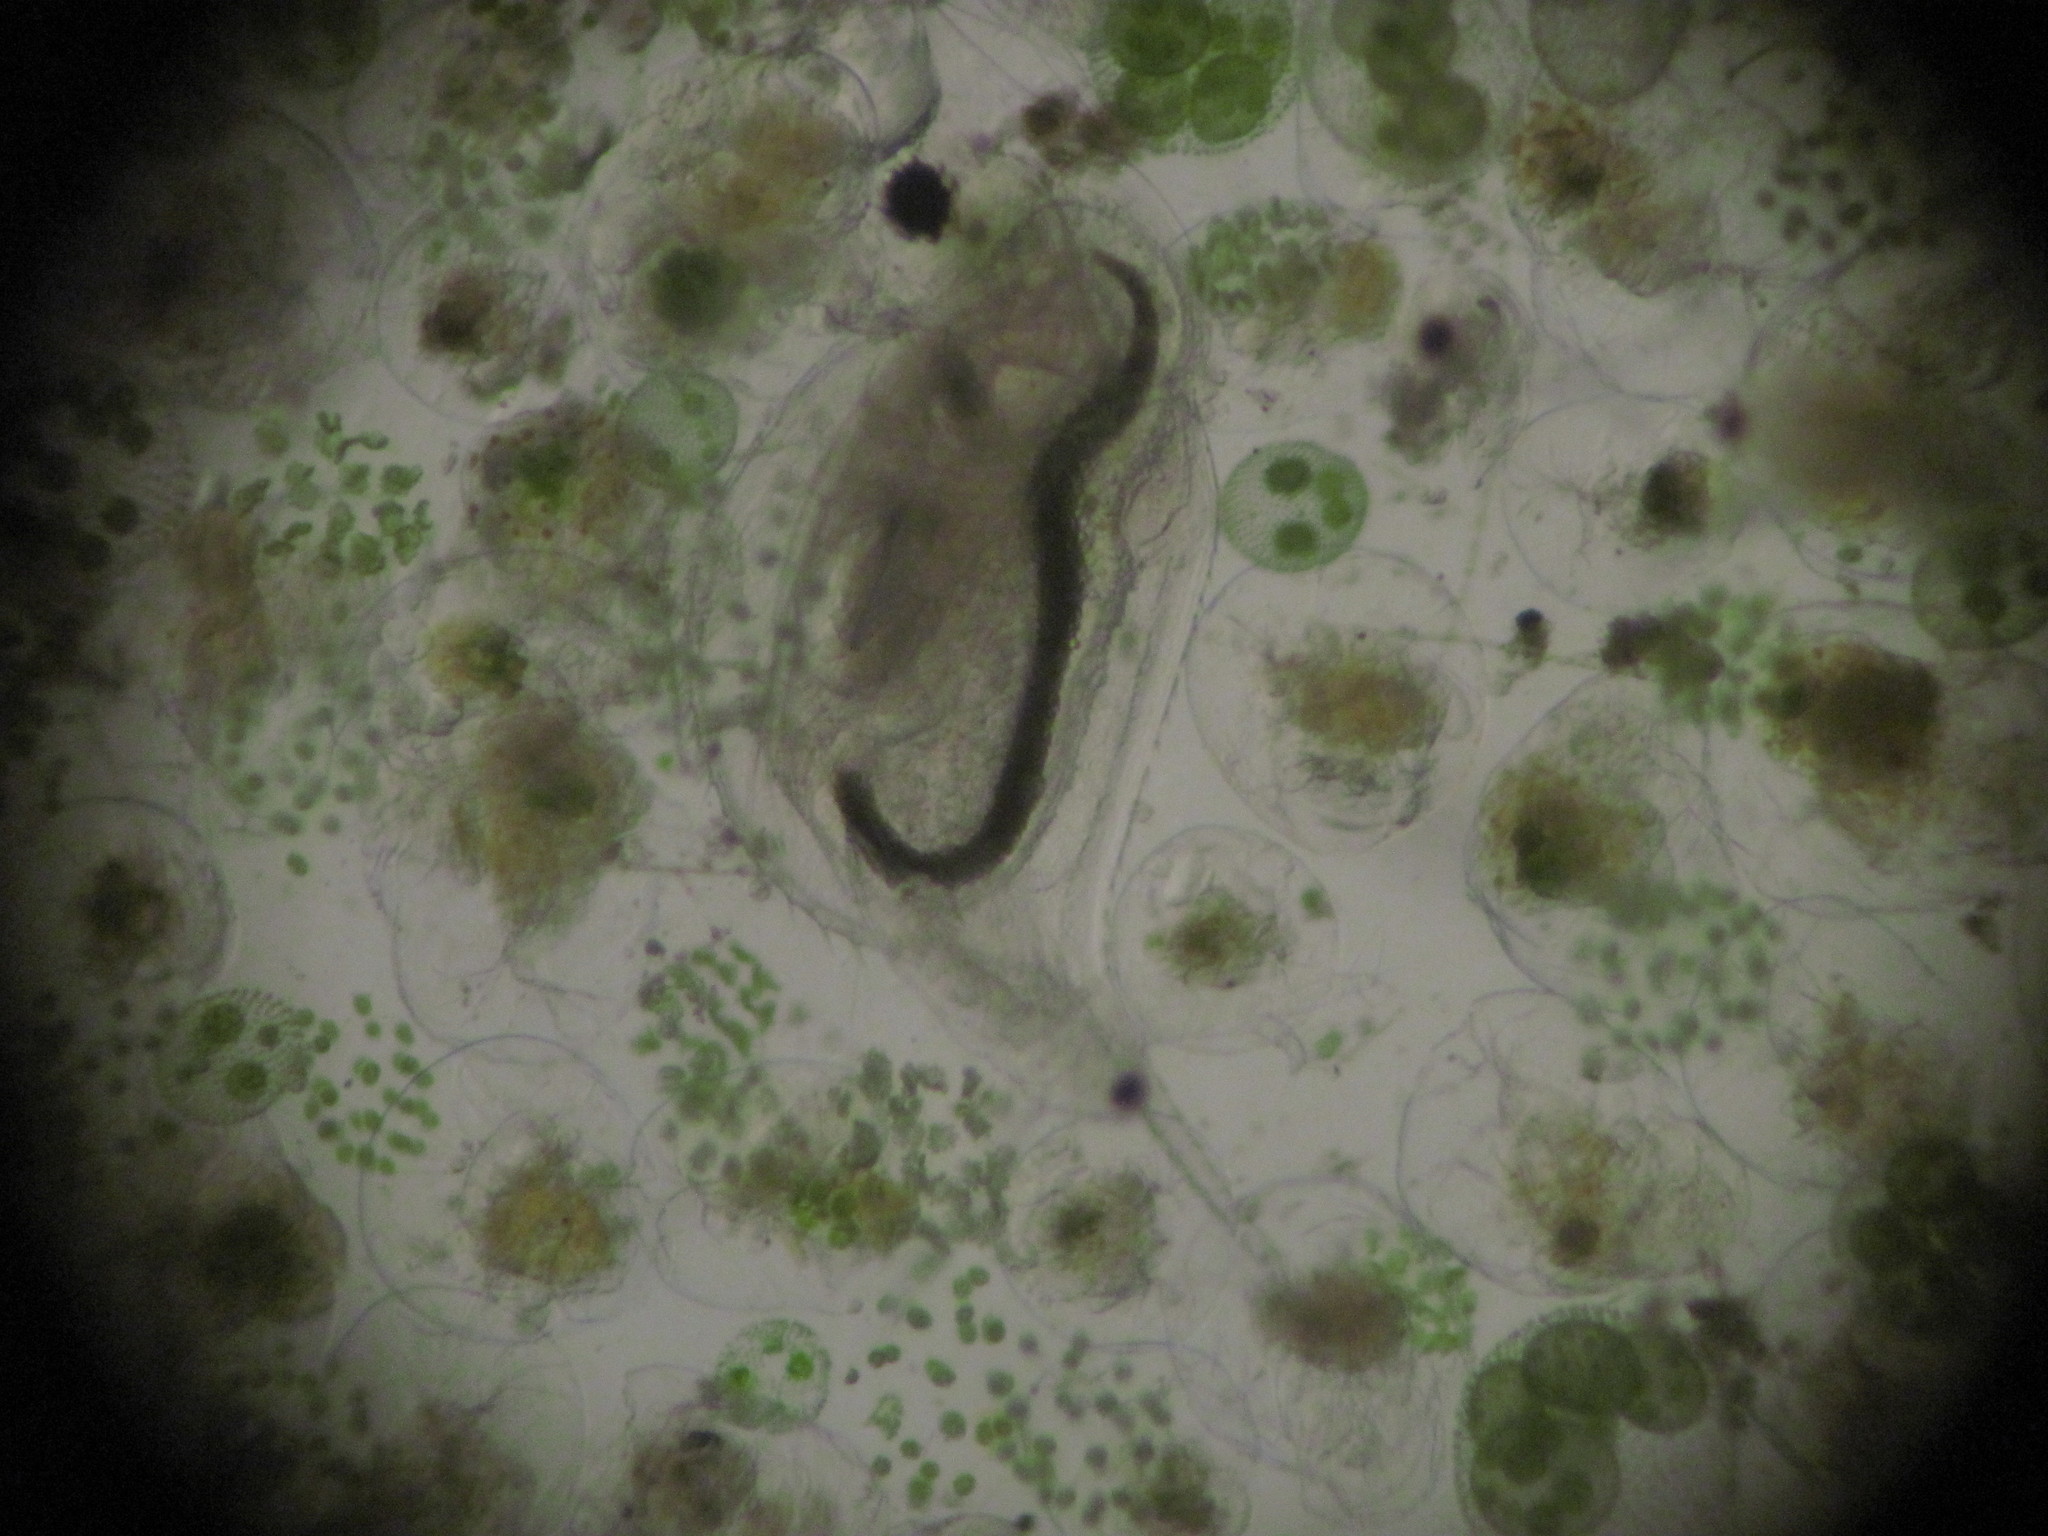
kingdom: Animalia
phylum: Arthropoda
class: Branchiopoda
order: Diplostraca
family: Daphniidae
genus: Daphnia
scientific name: Daphnia lumholtzi
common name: Spiny waterflea
